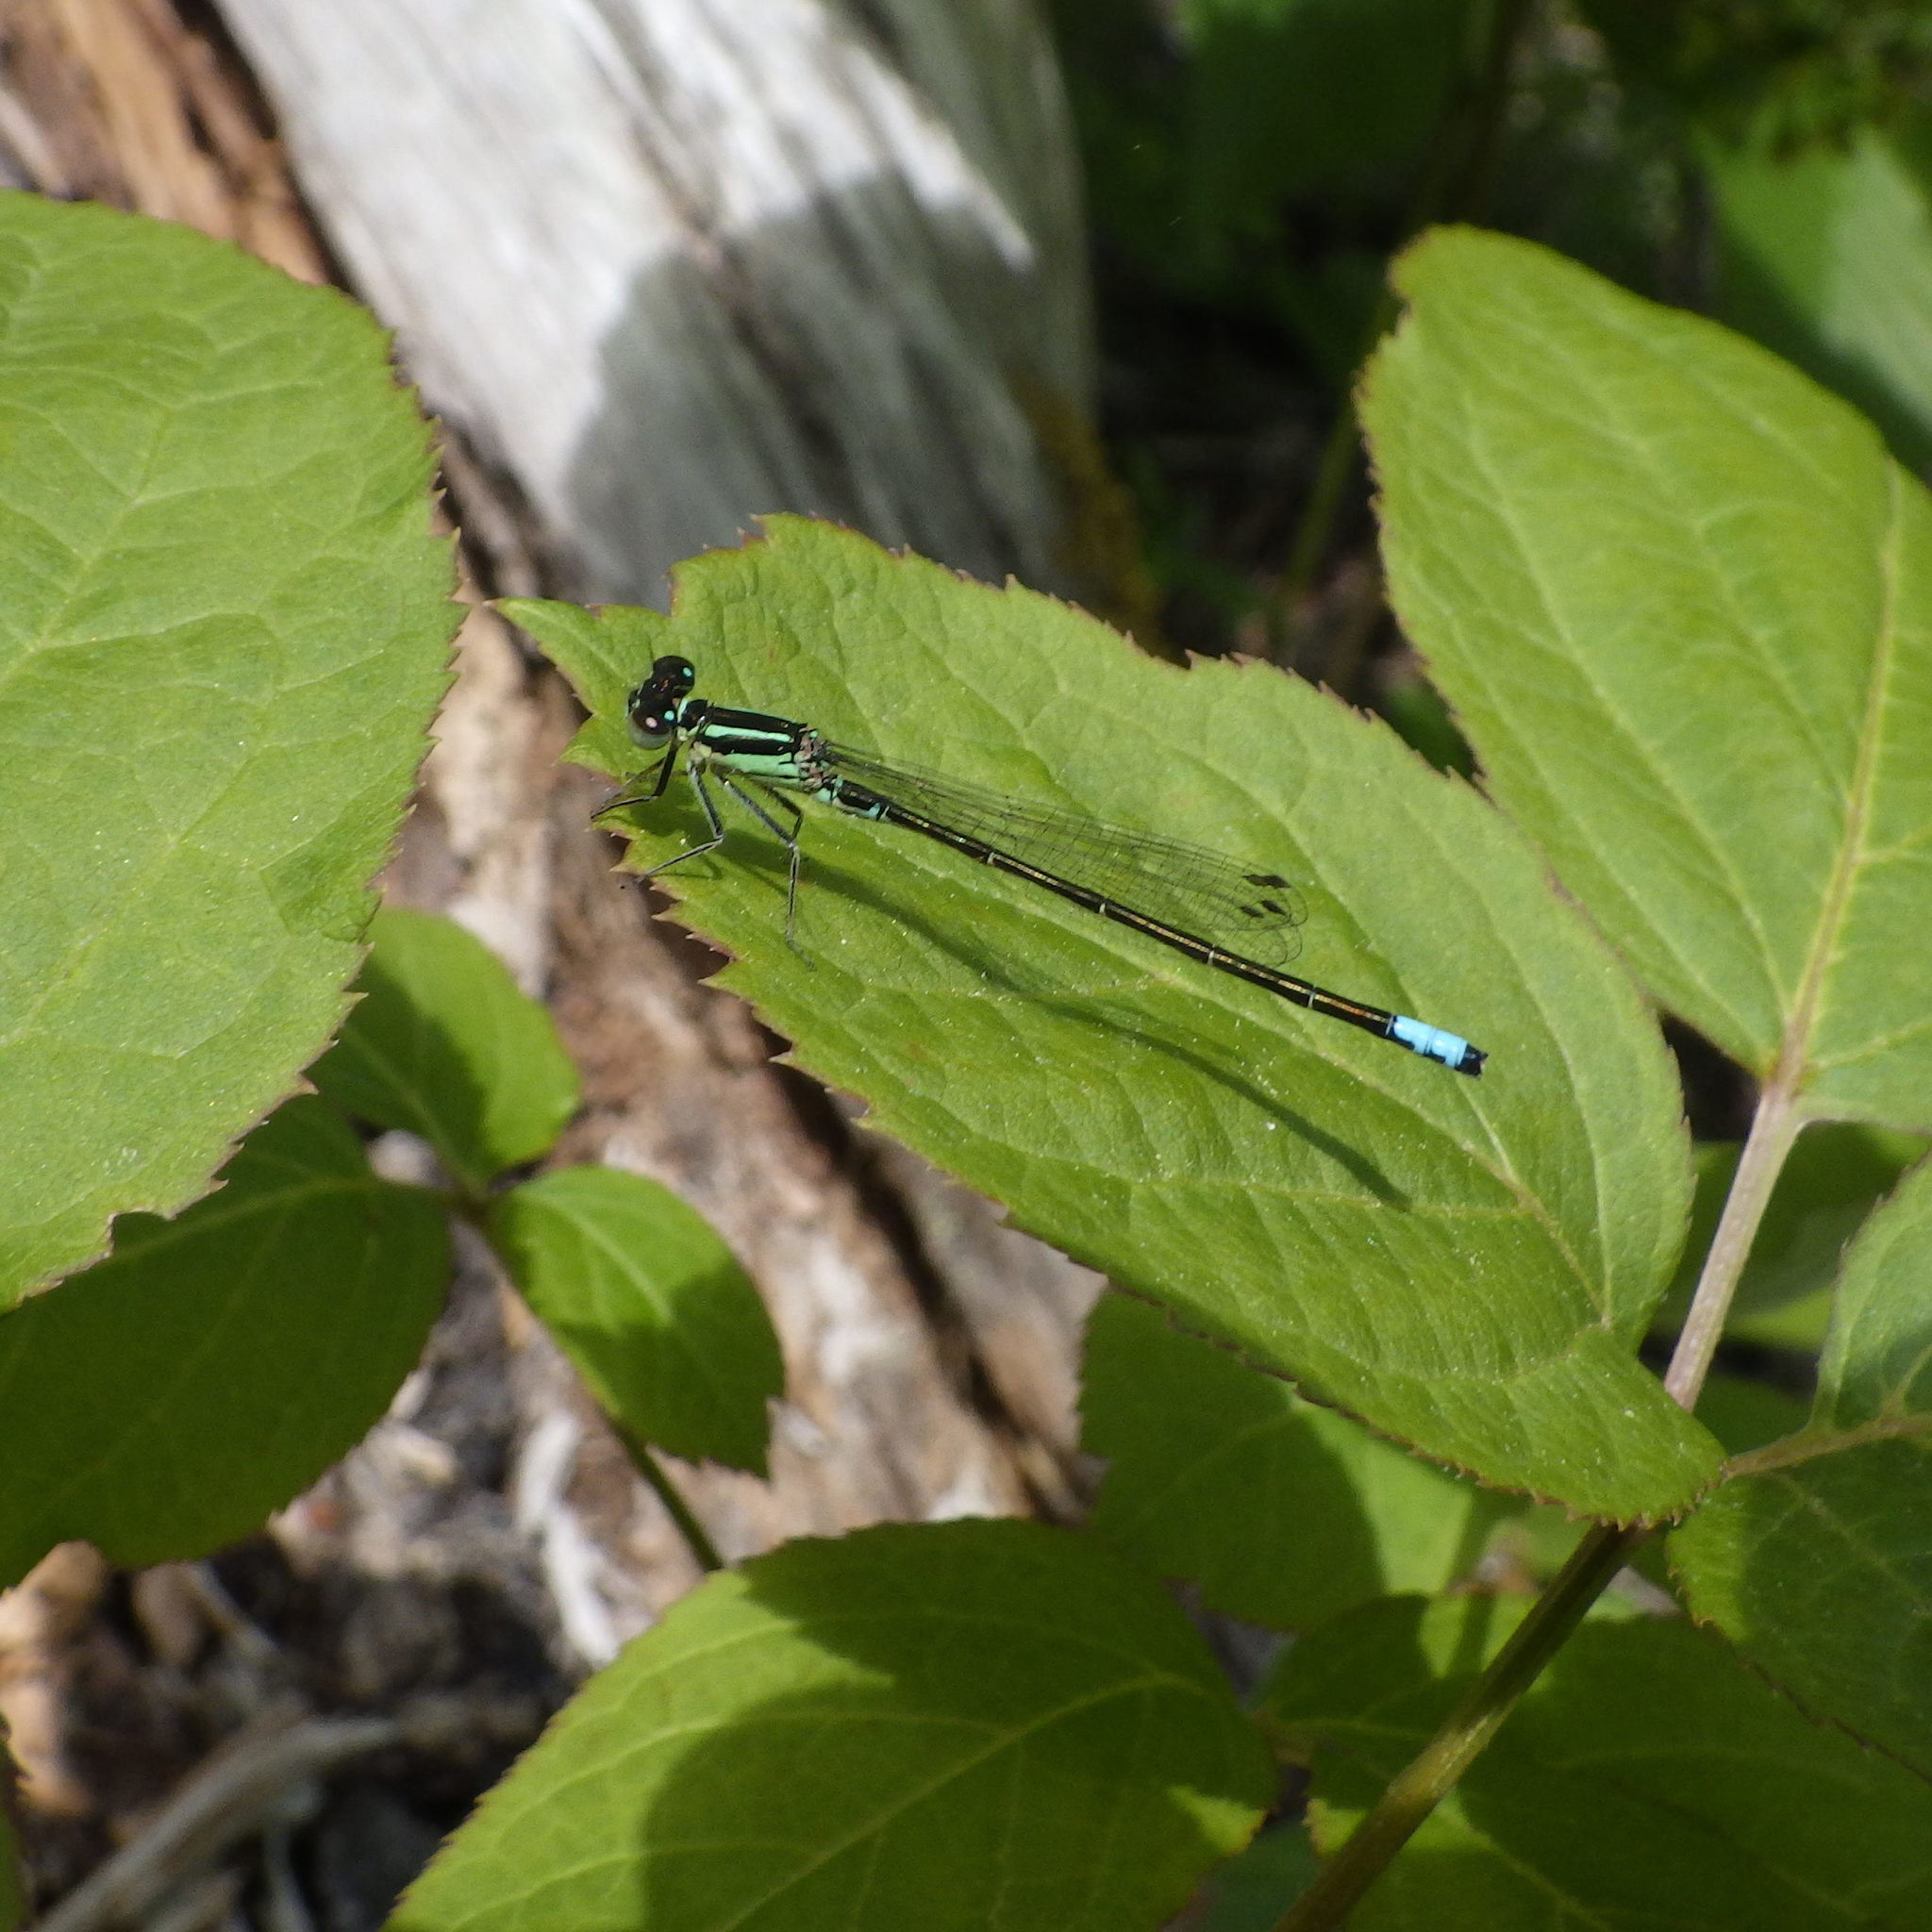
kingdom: Animalia
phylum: Arthropoda
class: Insecta
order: Odonata
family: Coenagrionidae
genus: Ischnura
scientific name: Ischnura verticalis
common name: Eastern forktail
